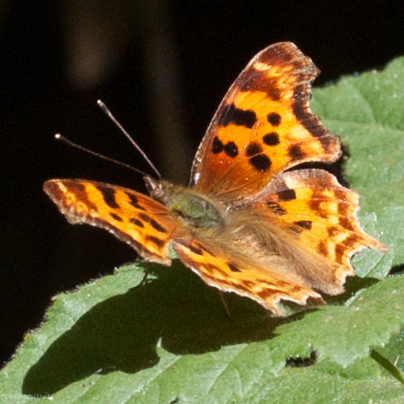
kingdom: Animalia
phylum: Arthropoda
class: Insecta
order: Lepidoptera
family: Nymphalidae
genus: Polygonia
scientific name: Polygonia satyrus
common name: Satyr angle wing
